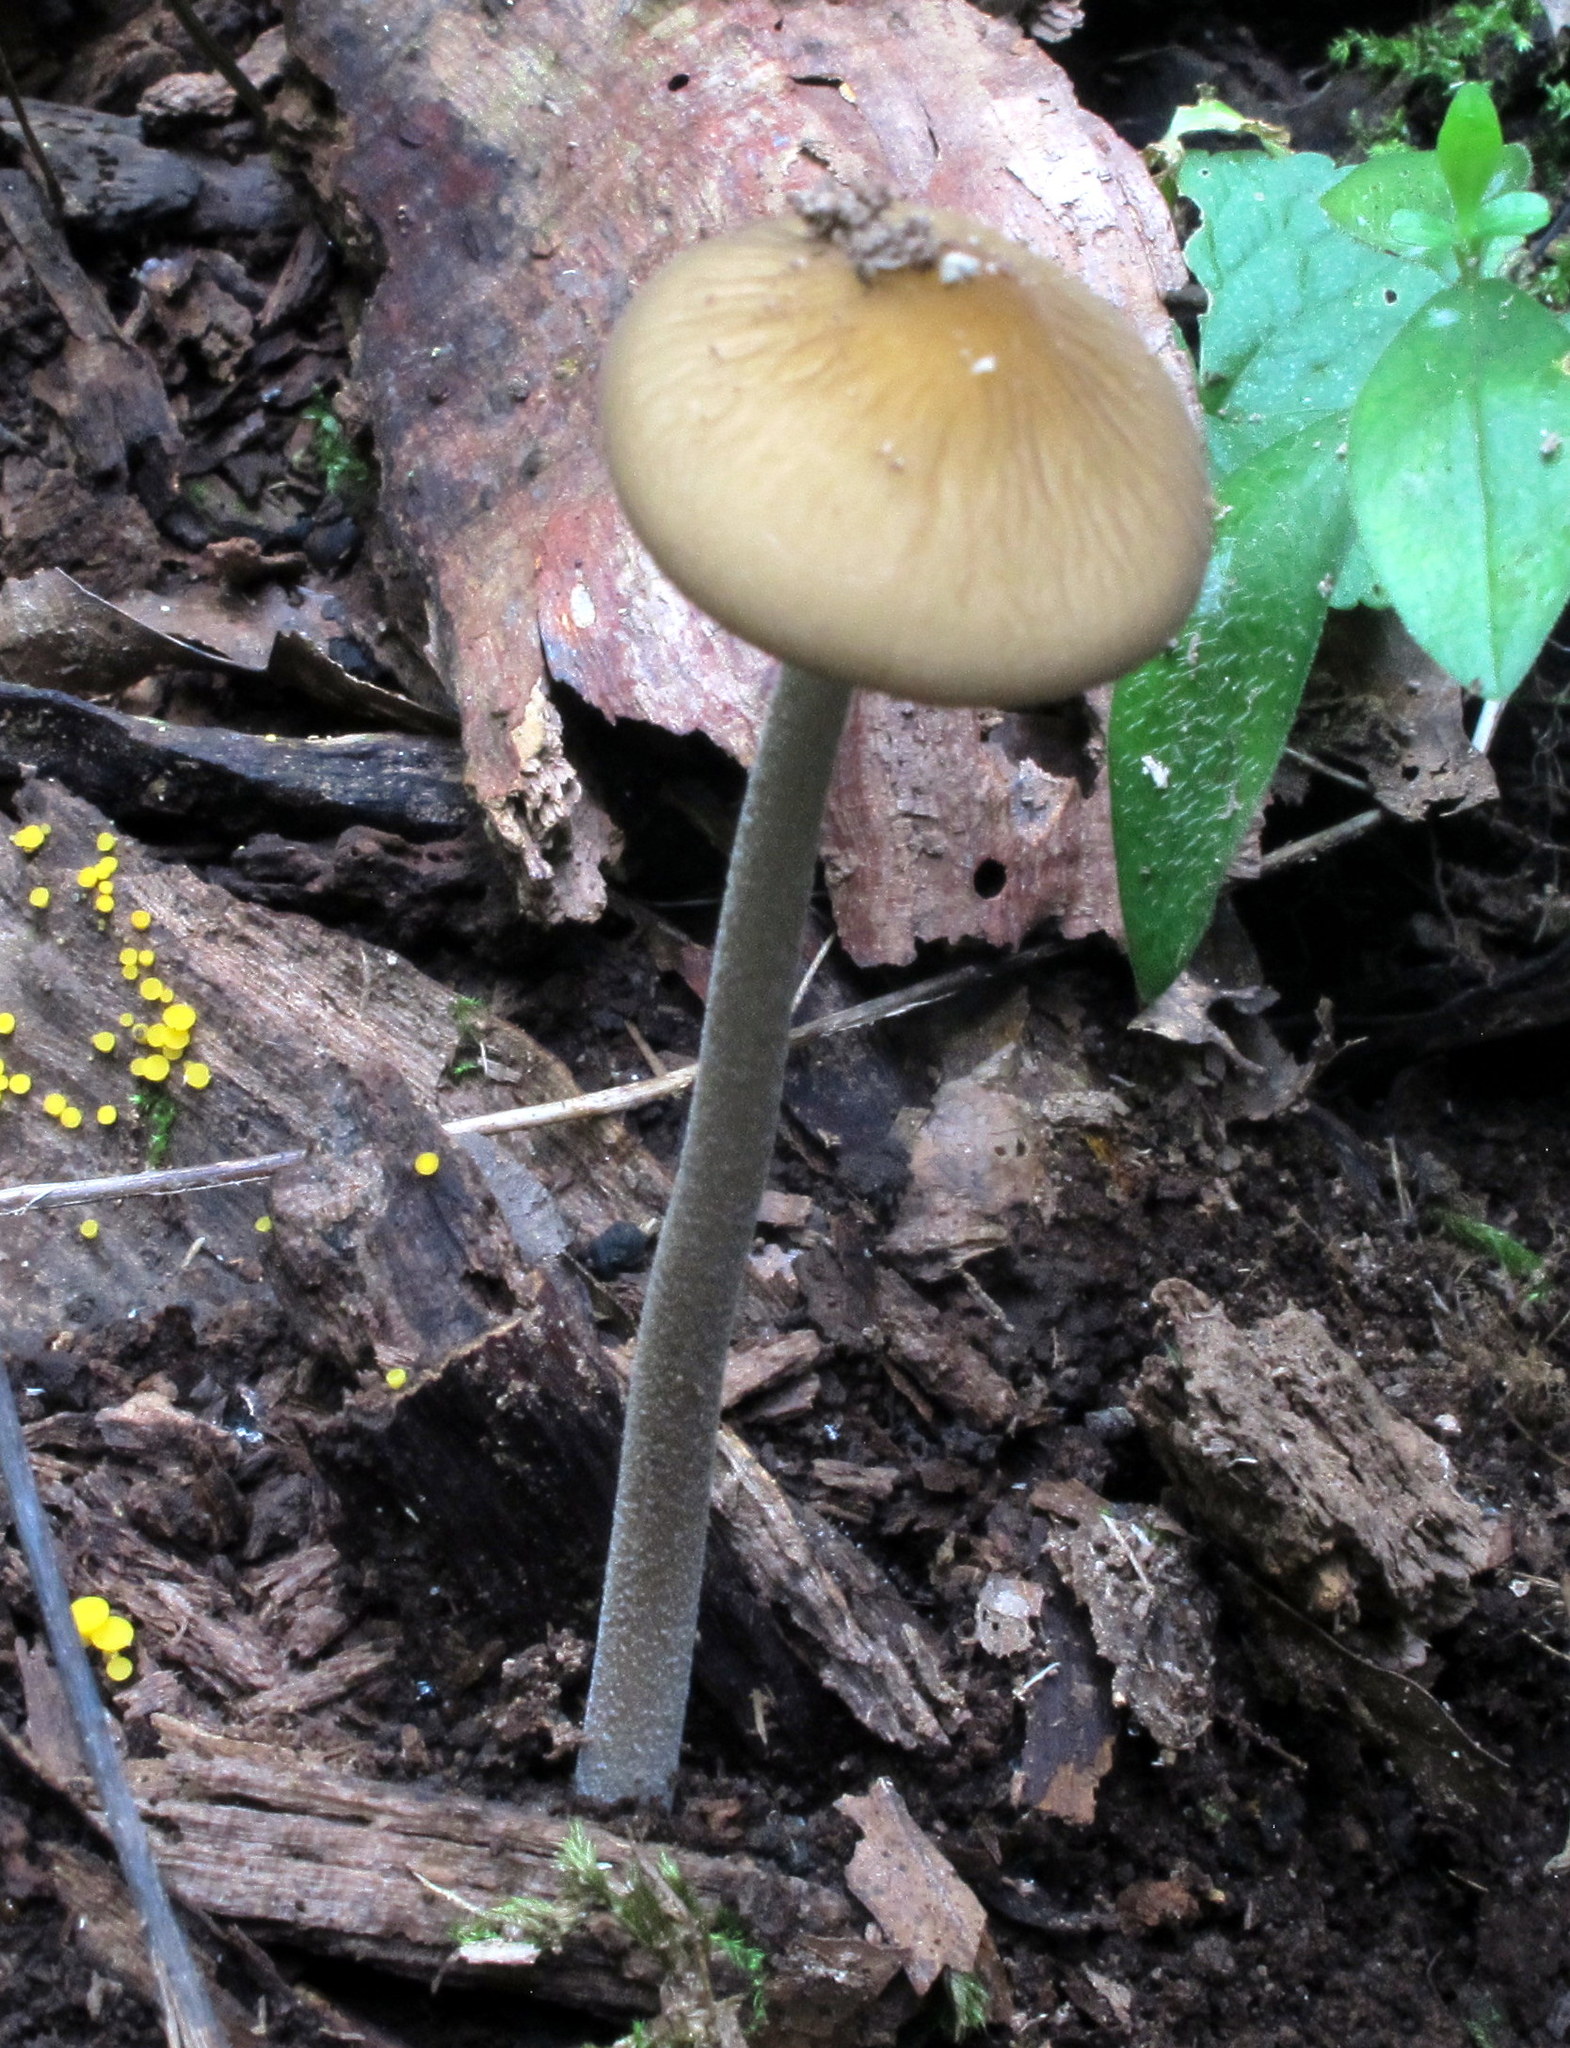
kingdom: Fungi
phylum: Basidiomycota
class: Agaricomycetes
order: Agaricales
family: Physalacriaceae
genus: Hymenopellis
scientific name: Hymenopellis furfuracea
